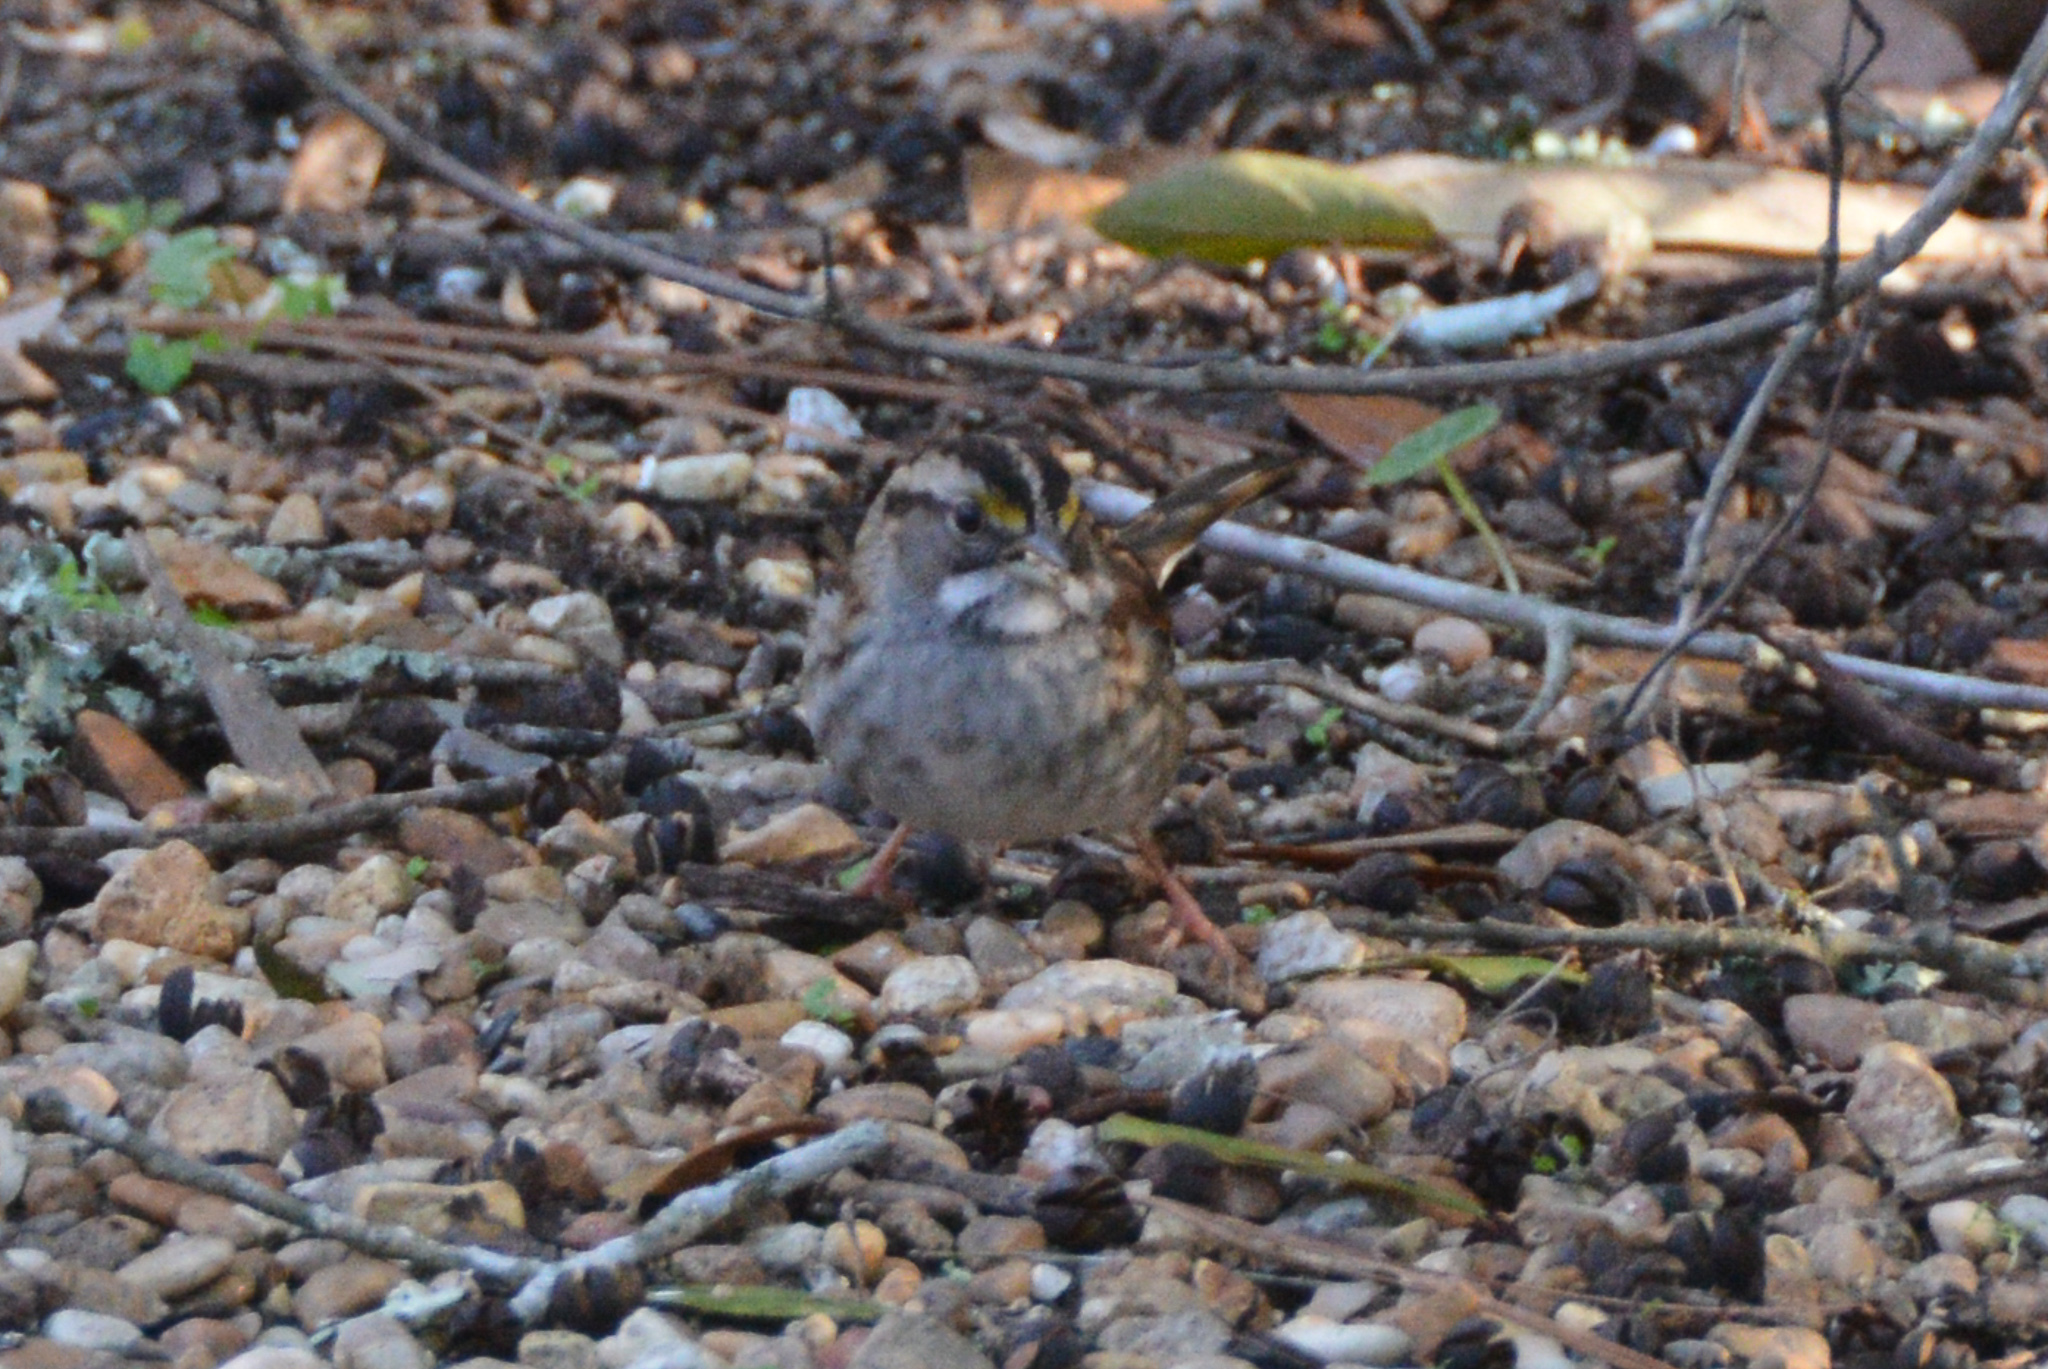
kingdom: Animalia
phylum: Chordata
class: Aves
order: Passeriformes
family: Passerellidae
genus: Zonotrichia
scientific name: Zonotrichia albicollis
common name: White-throated sparrow
